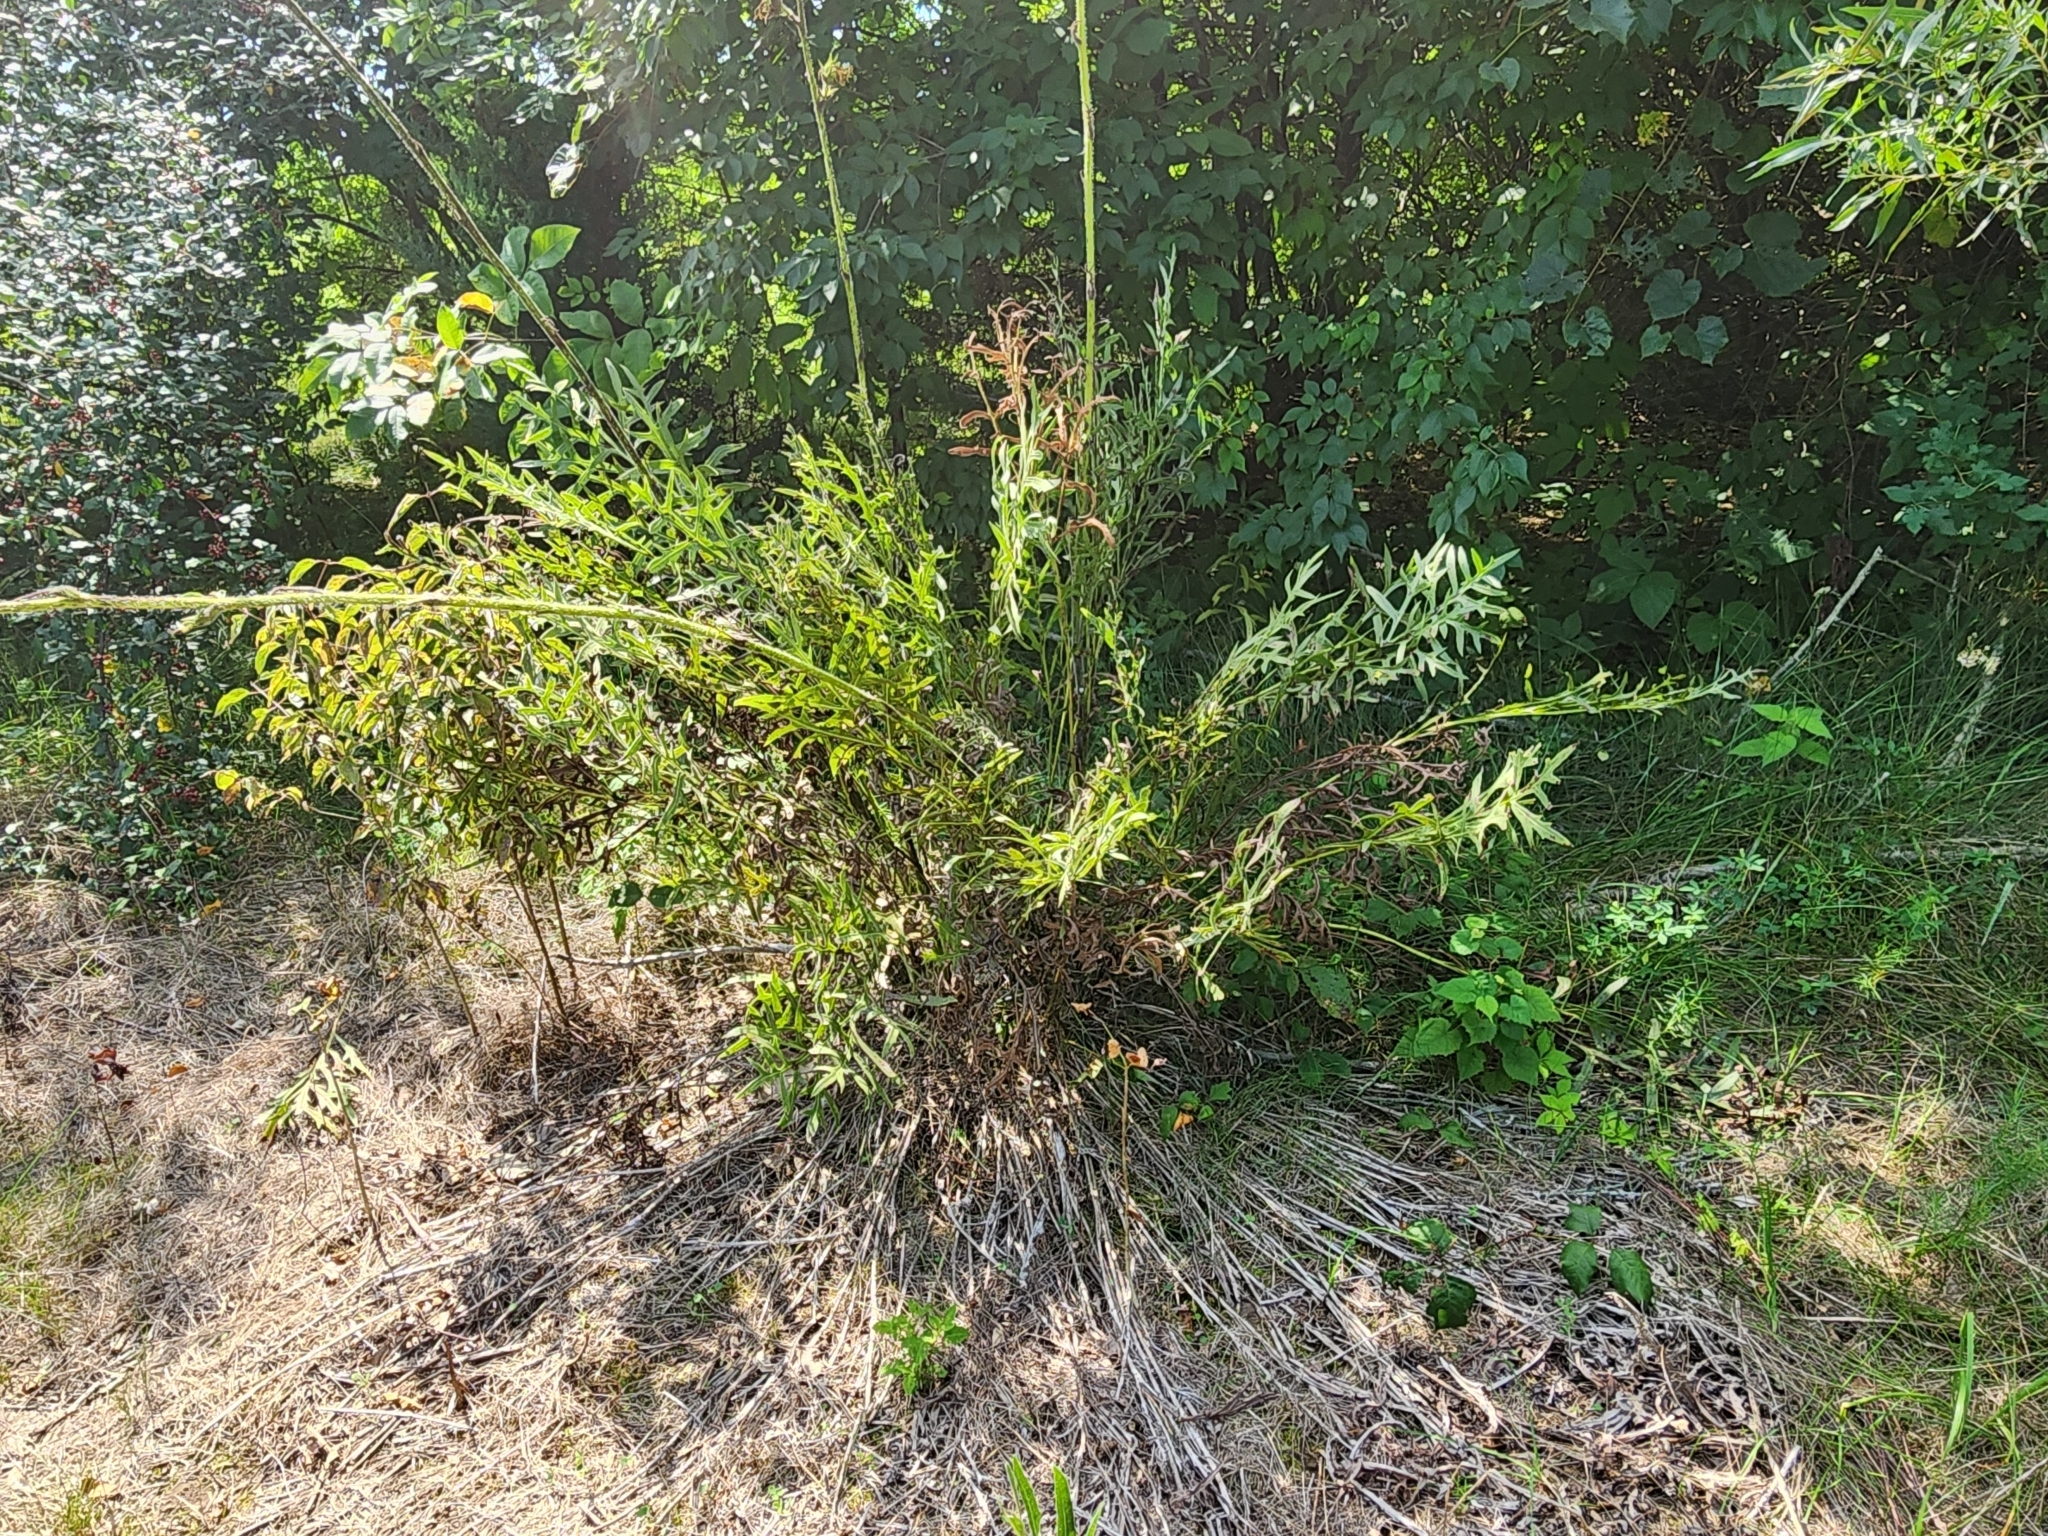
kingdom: Plantae
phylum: Tracheophyta
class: Magnoliopsida
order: Asterales
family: Asteraceae
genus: Silphium
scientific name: Silphium laciniatum
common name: Polarplant
